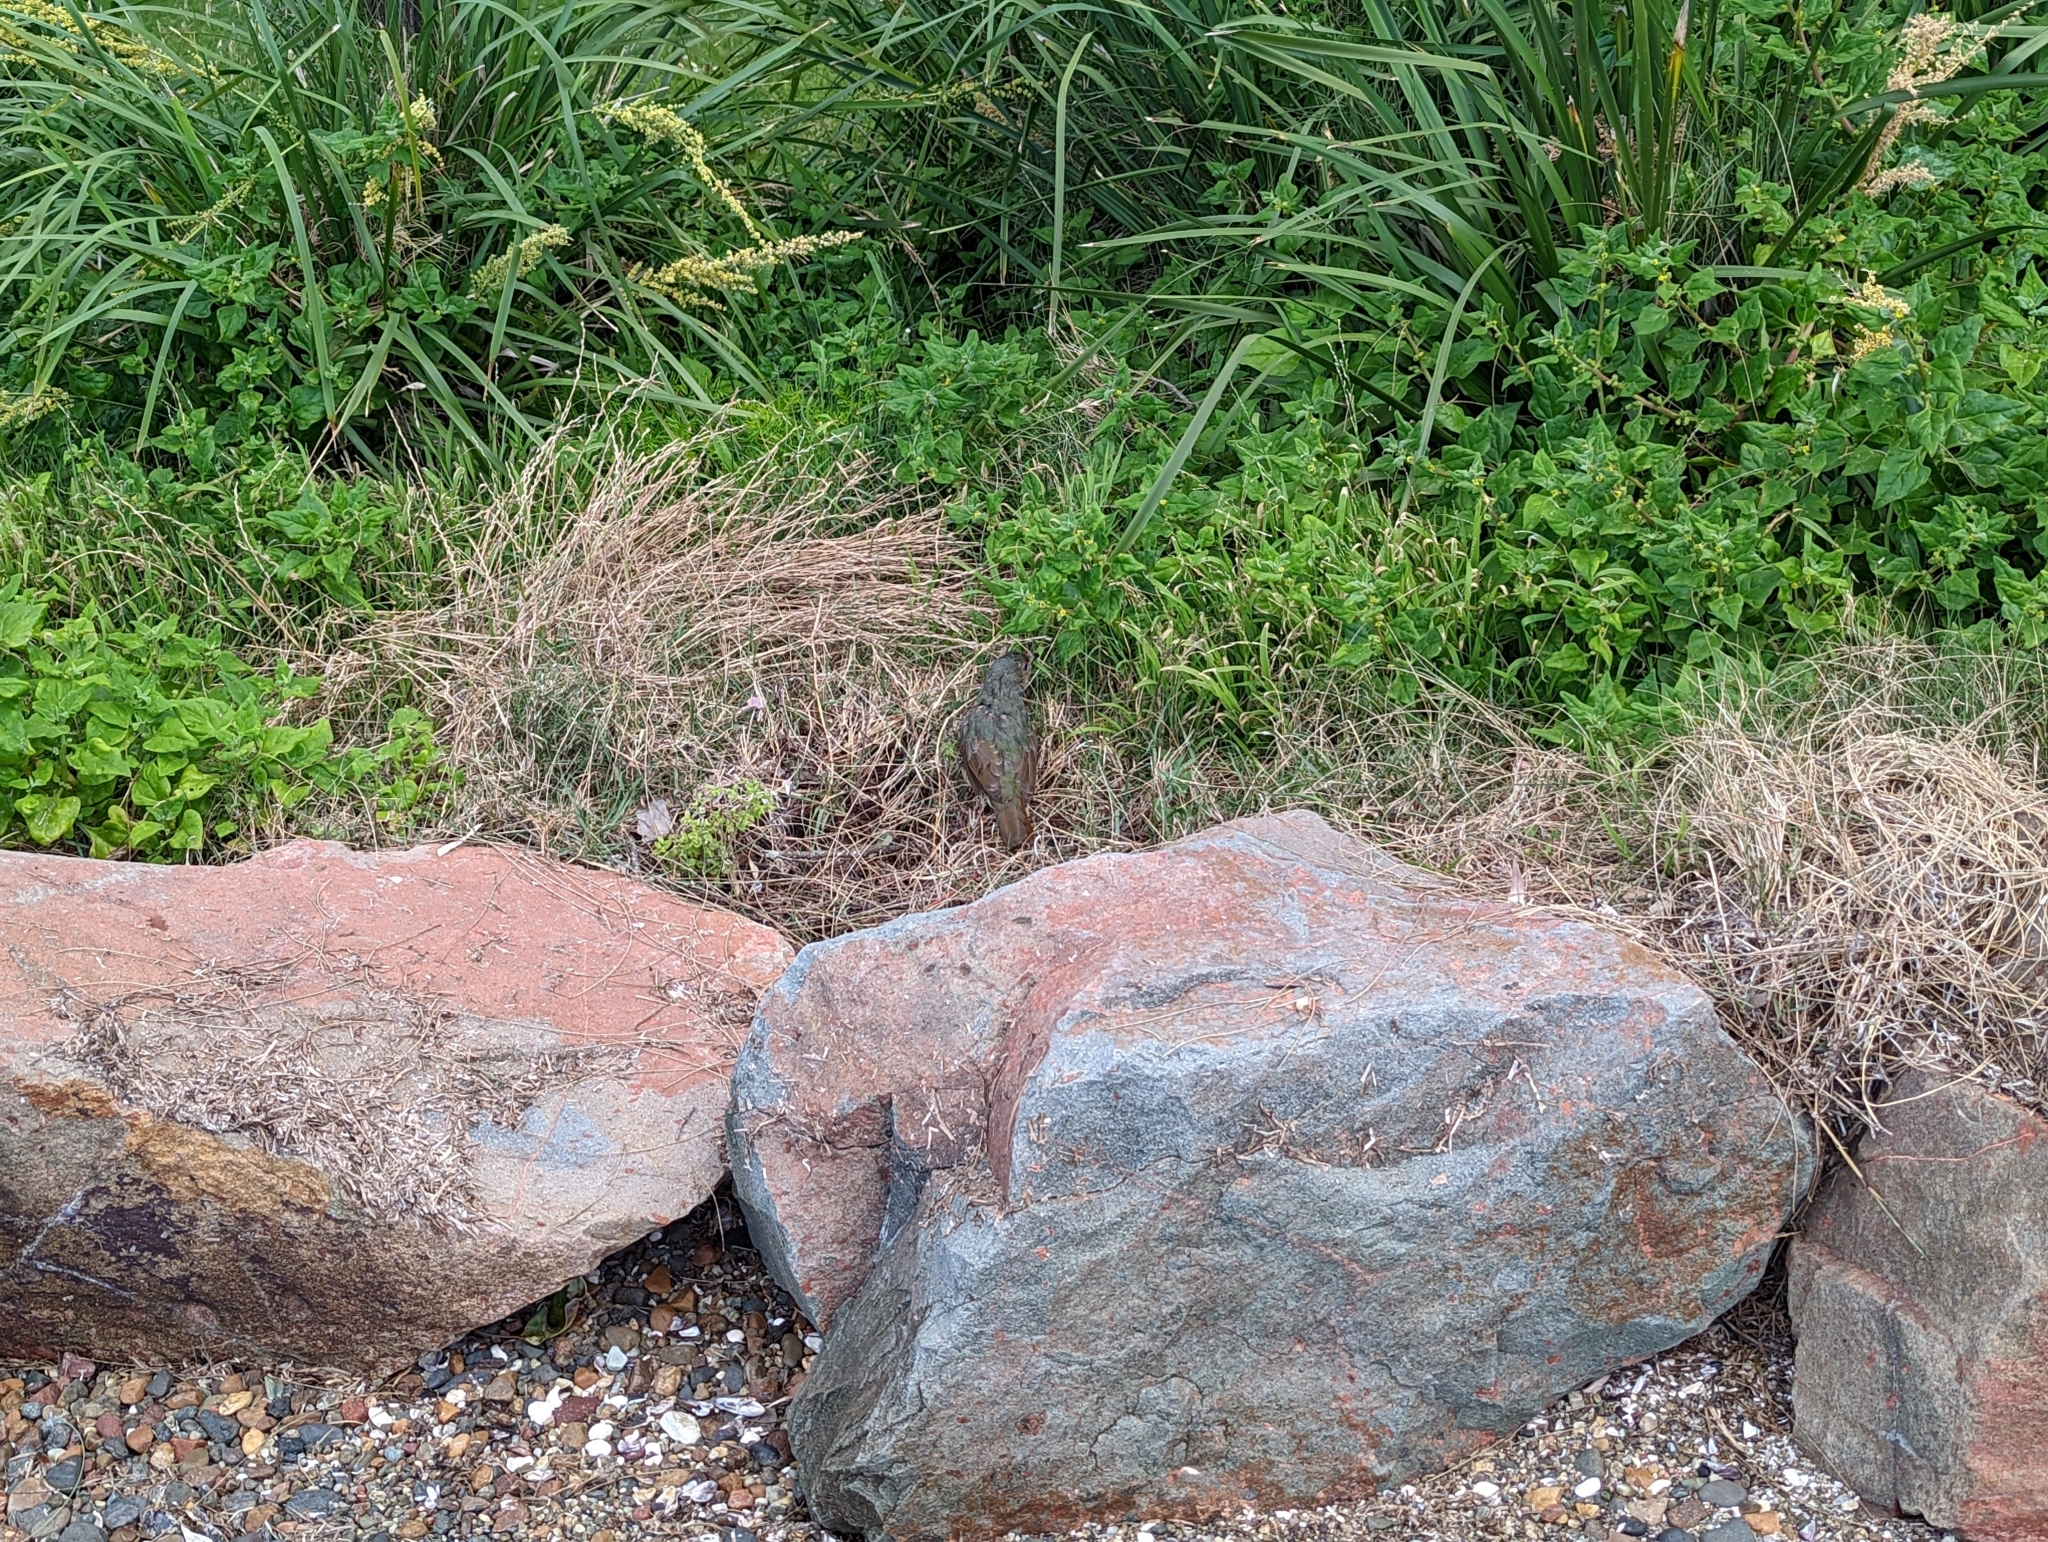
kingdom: Animalia
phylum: Chordata
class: Aves
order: Passeriformes
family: Ptilonorhynchidae
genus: Ptilonorhynchus
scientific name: Ptilonorhynchus violaceus
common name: Satin bowerbird
